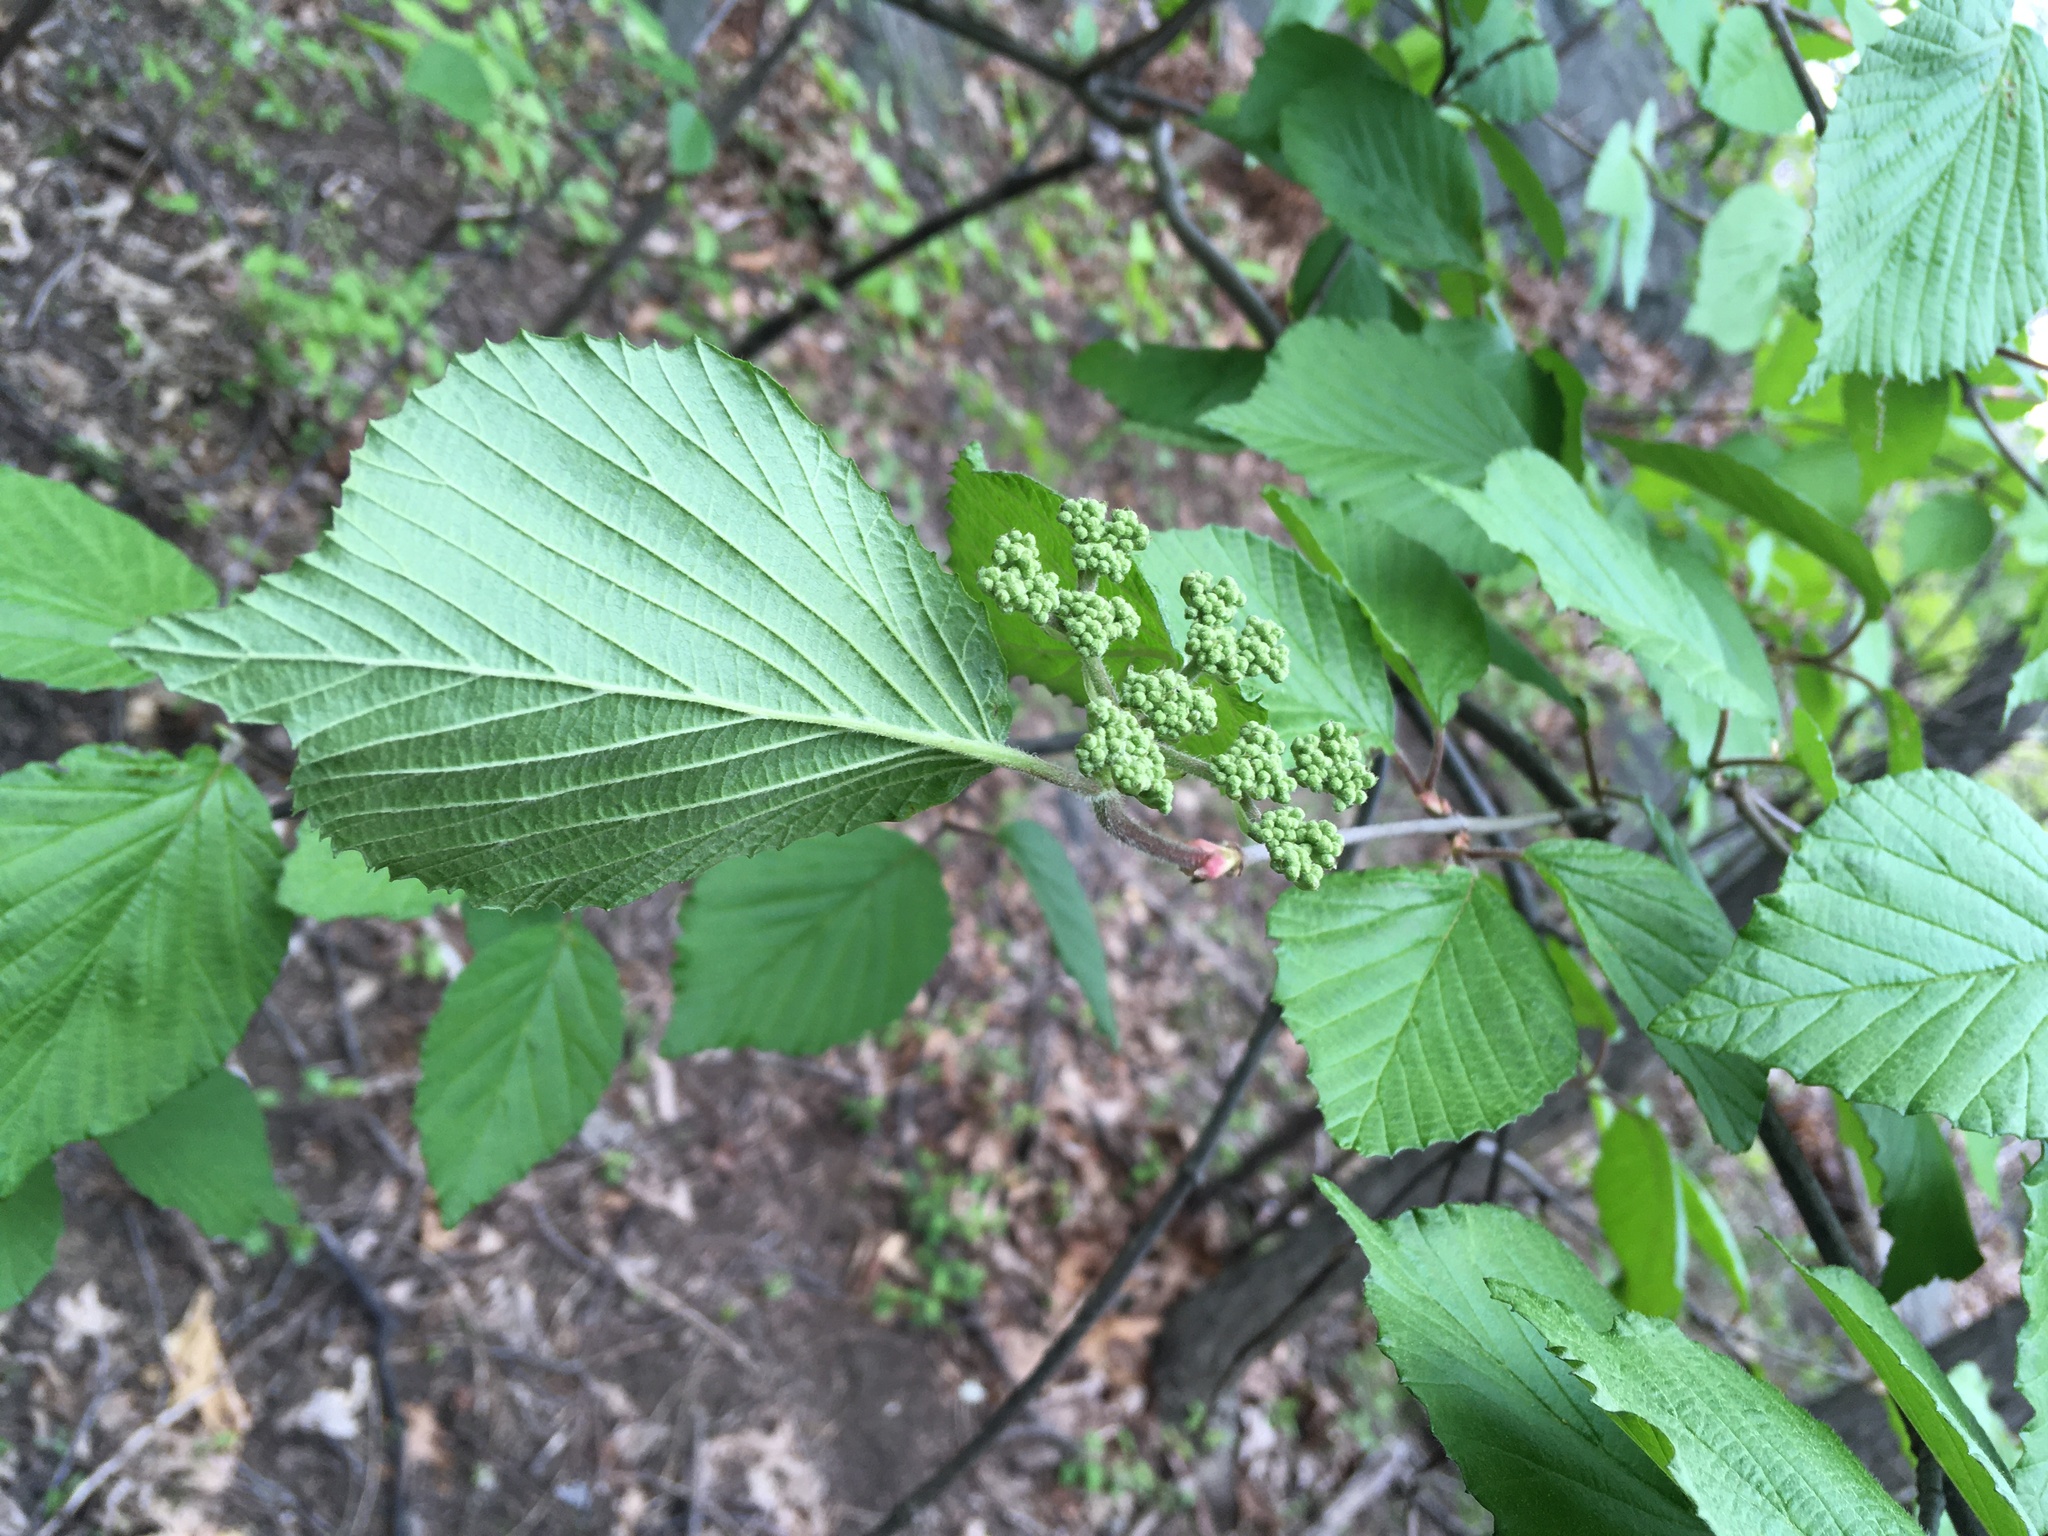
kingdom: Plantae
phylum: Tracheophyta
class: Magnoliopsida
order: Dipsacales
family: Viburnaceae
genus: Viburnum
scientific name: Viburnum dilatatum
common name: Linden arrowwood
